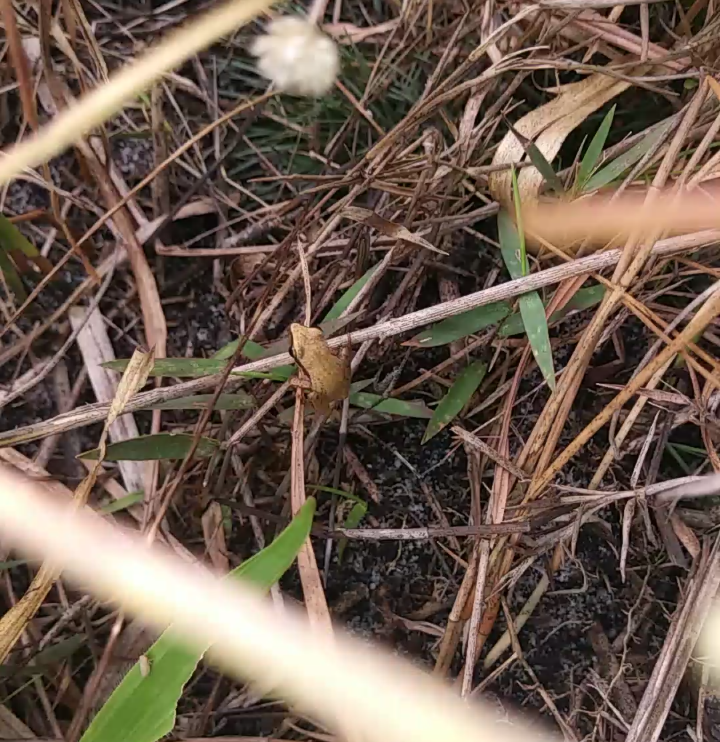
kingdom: Animalia
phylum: Chordata
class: Amphibia
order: Anura
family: Hylidae
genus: Pseudacris
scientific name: Pseudacris ocularis
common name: Little grass frog
